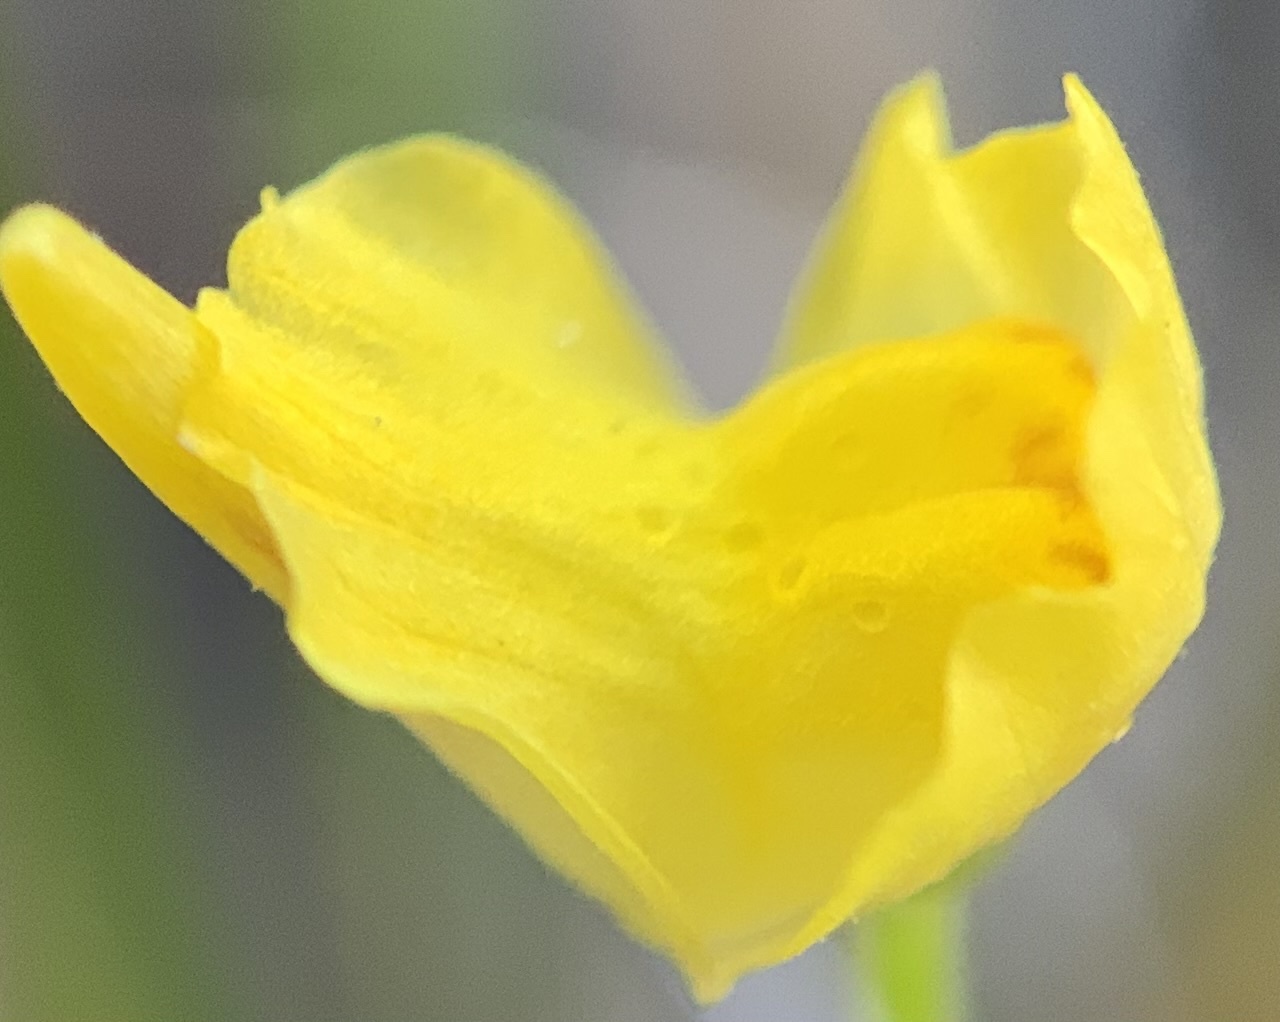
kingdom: Plantae
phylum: Tracheophyta
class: Magnoliopsida
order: Lamiales
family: Lentibulariaceae
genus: Utricularia
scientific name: Utricularia gibba
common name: Humped bladderwort
